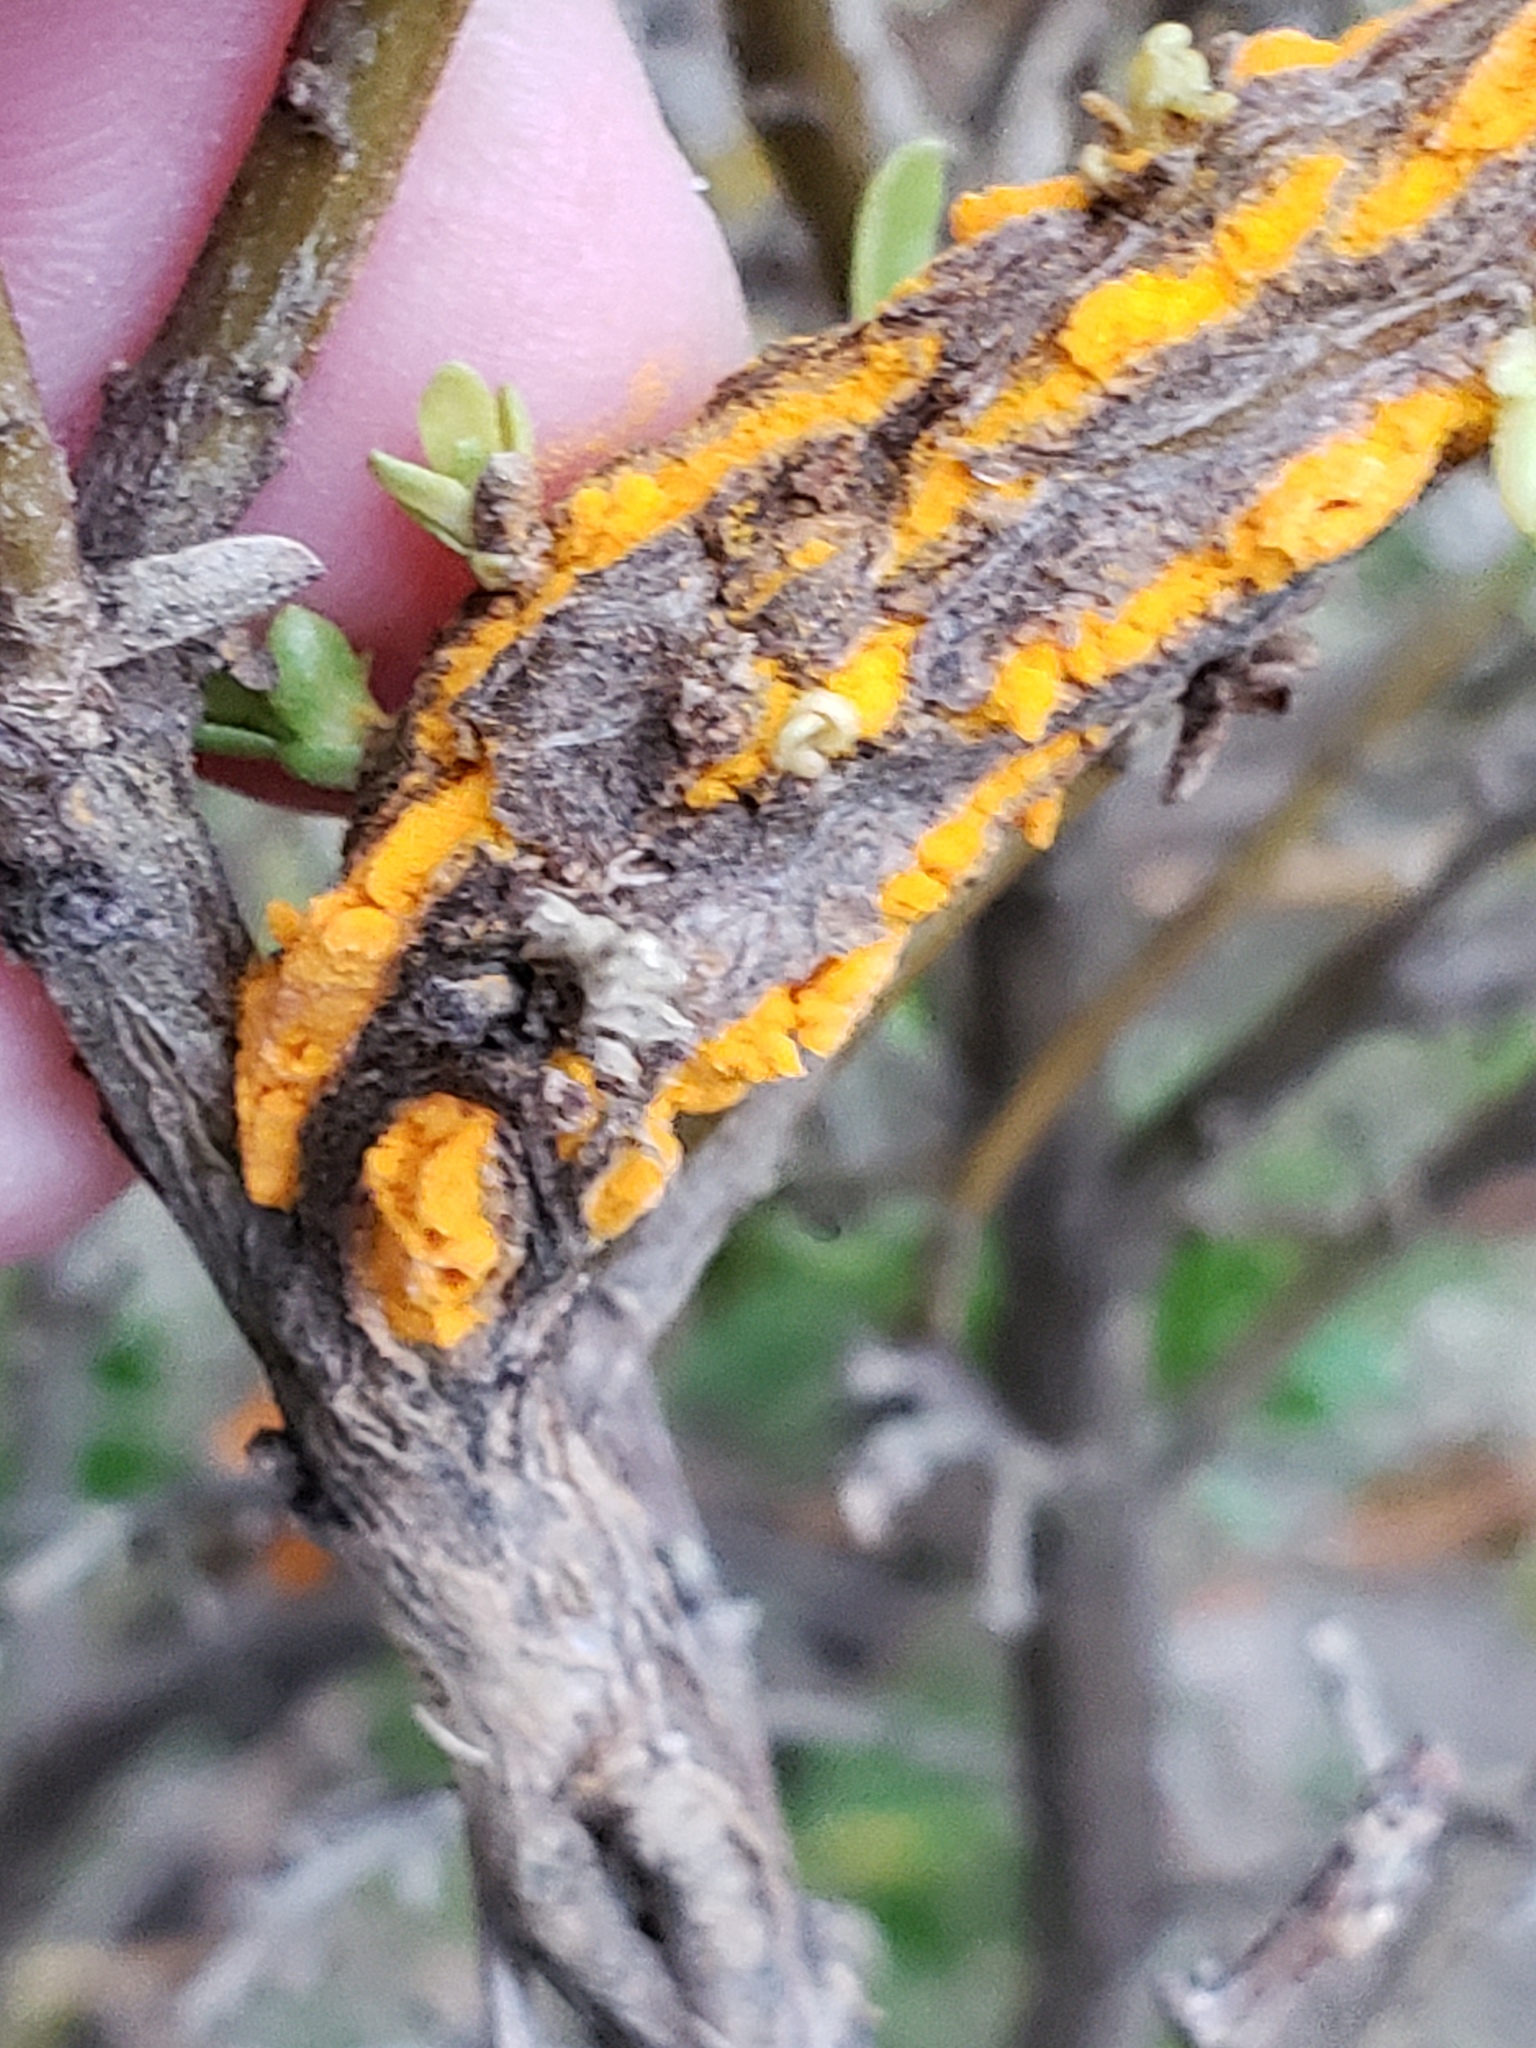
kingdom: Fungi
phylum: Basidiomycota
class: Pucciniomycetes
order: Pucciniales
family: Pucciniaceae
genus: Eriosporangium
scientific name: Eriosporangium evadens
